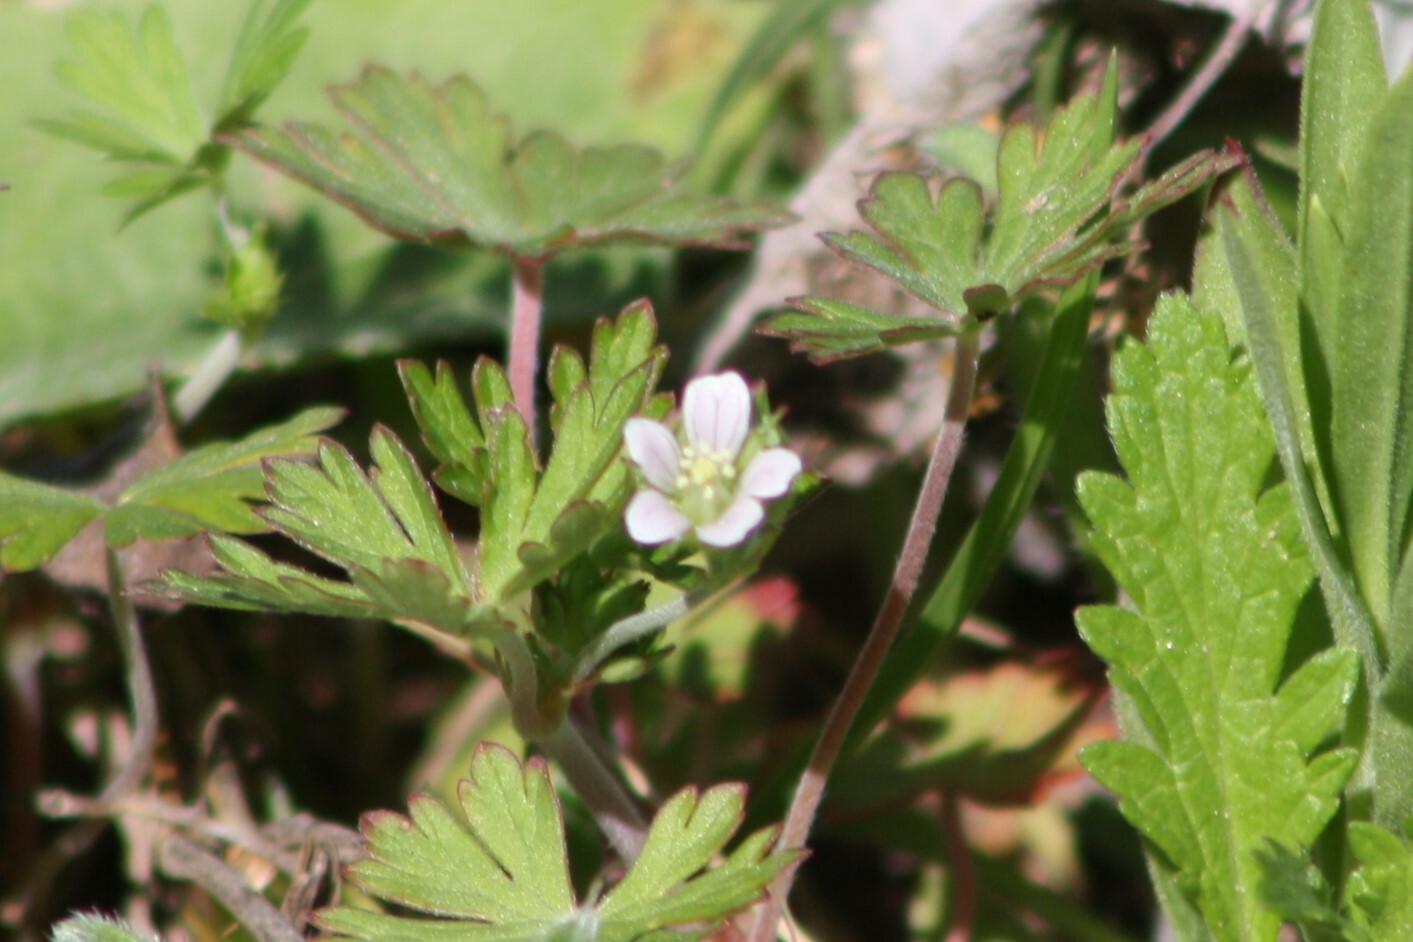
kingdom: Plantae
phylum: Tracheophyta
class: Magnoliopsida
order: Geraniales
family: Geraniaceae
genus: Geranium
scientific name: Geranium carolinianum
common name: Carolina crane's-bill
